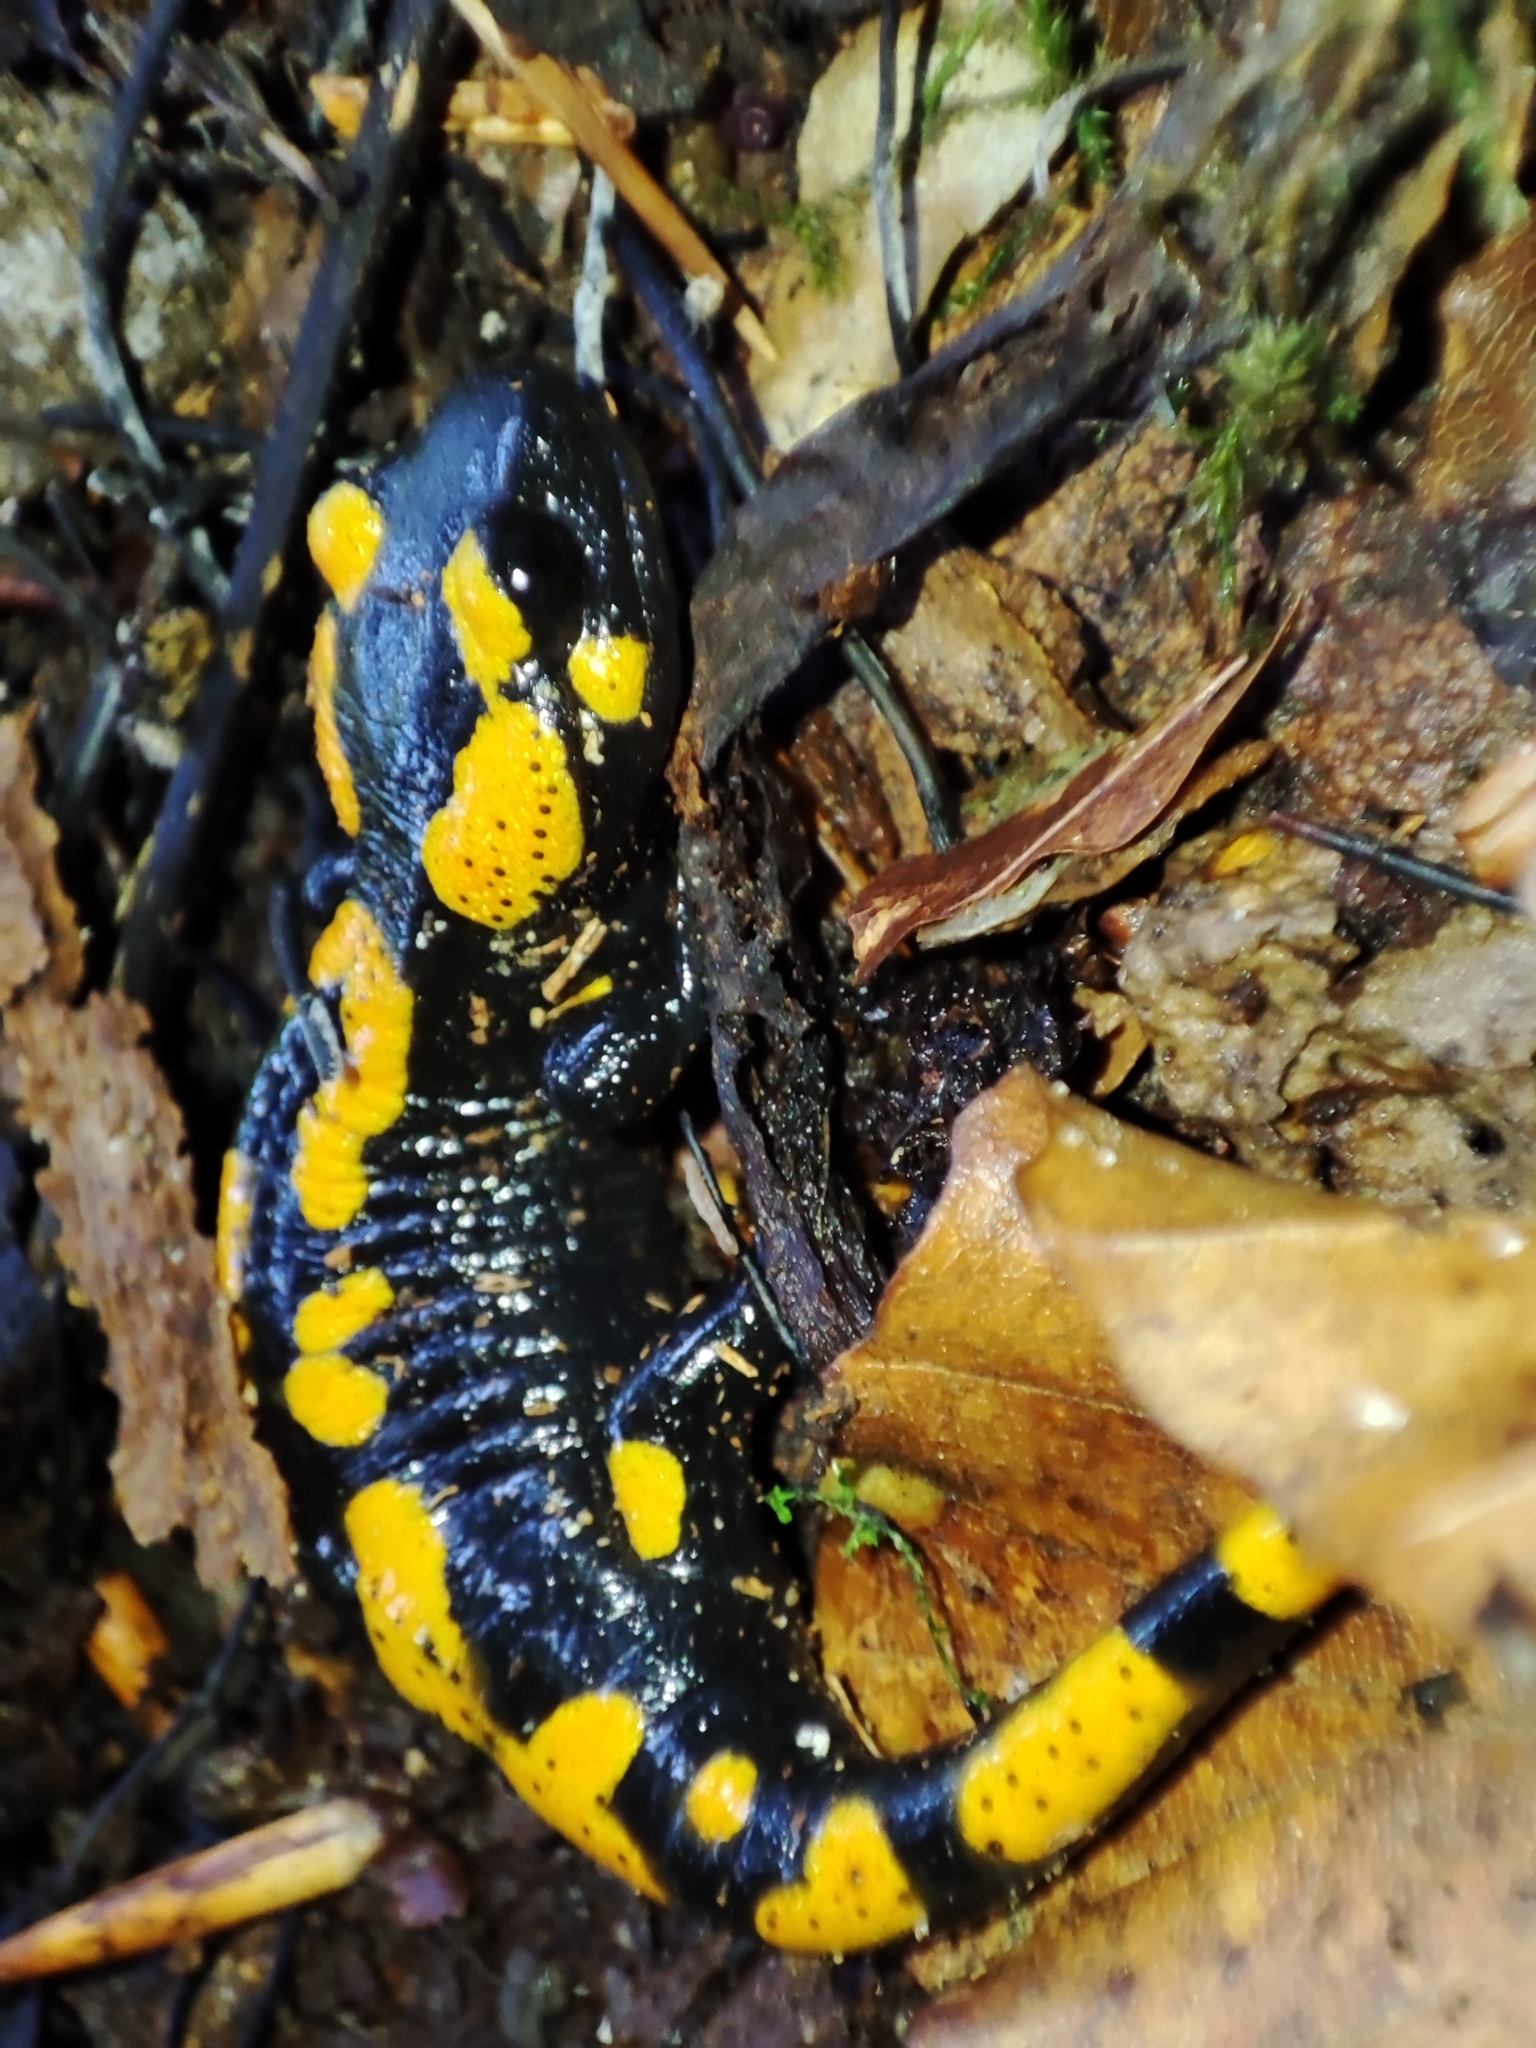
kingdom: Animalia
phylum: Chordata
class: Amphibia
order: Caudata
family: Salamandridae
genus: Salamandra
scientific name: Salamandra salamandra
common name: Fire salamander
